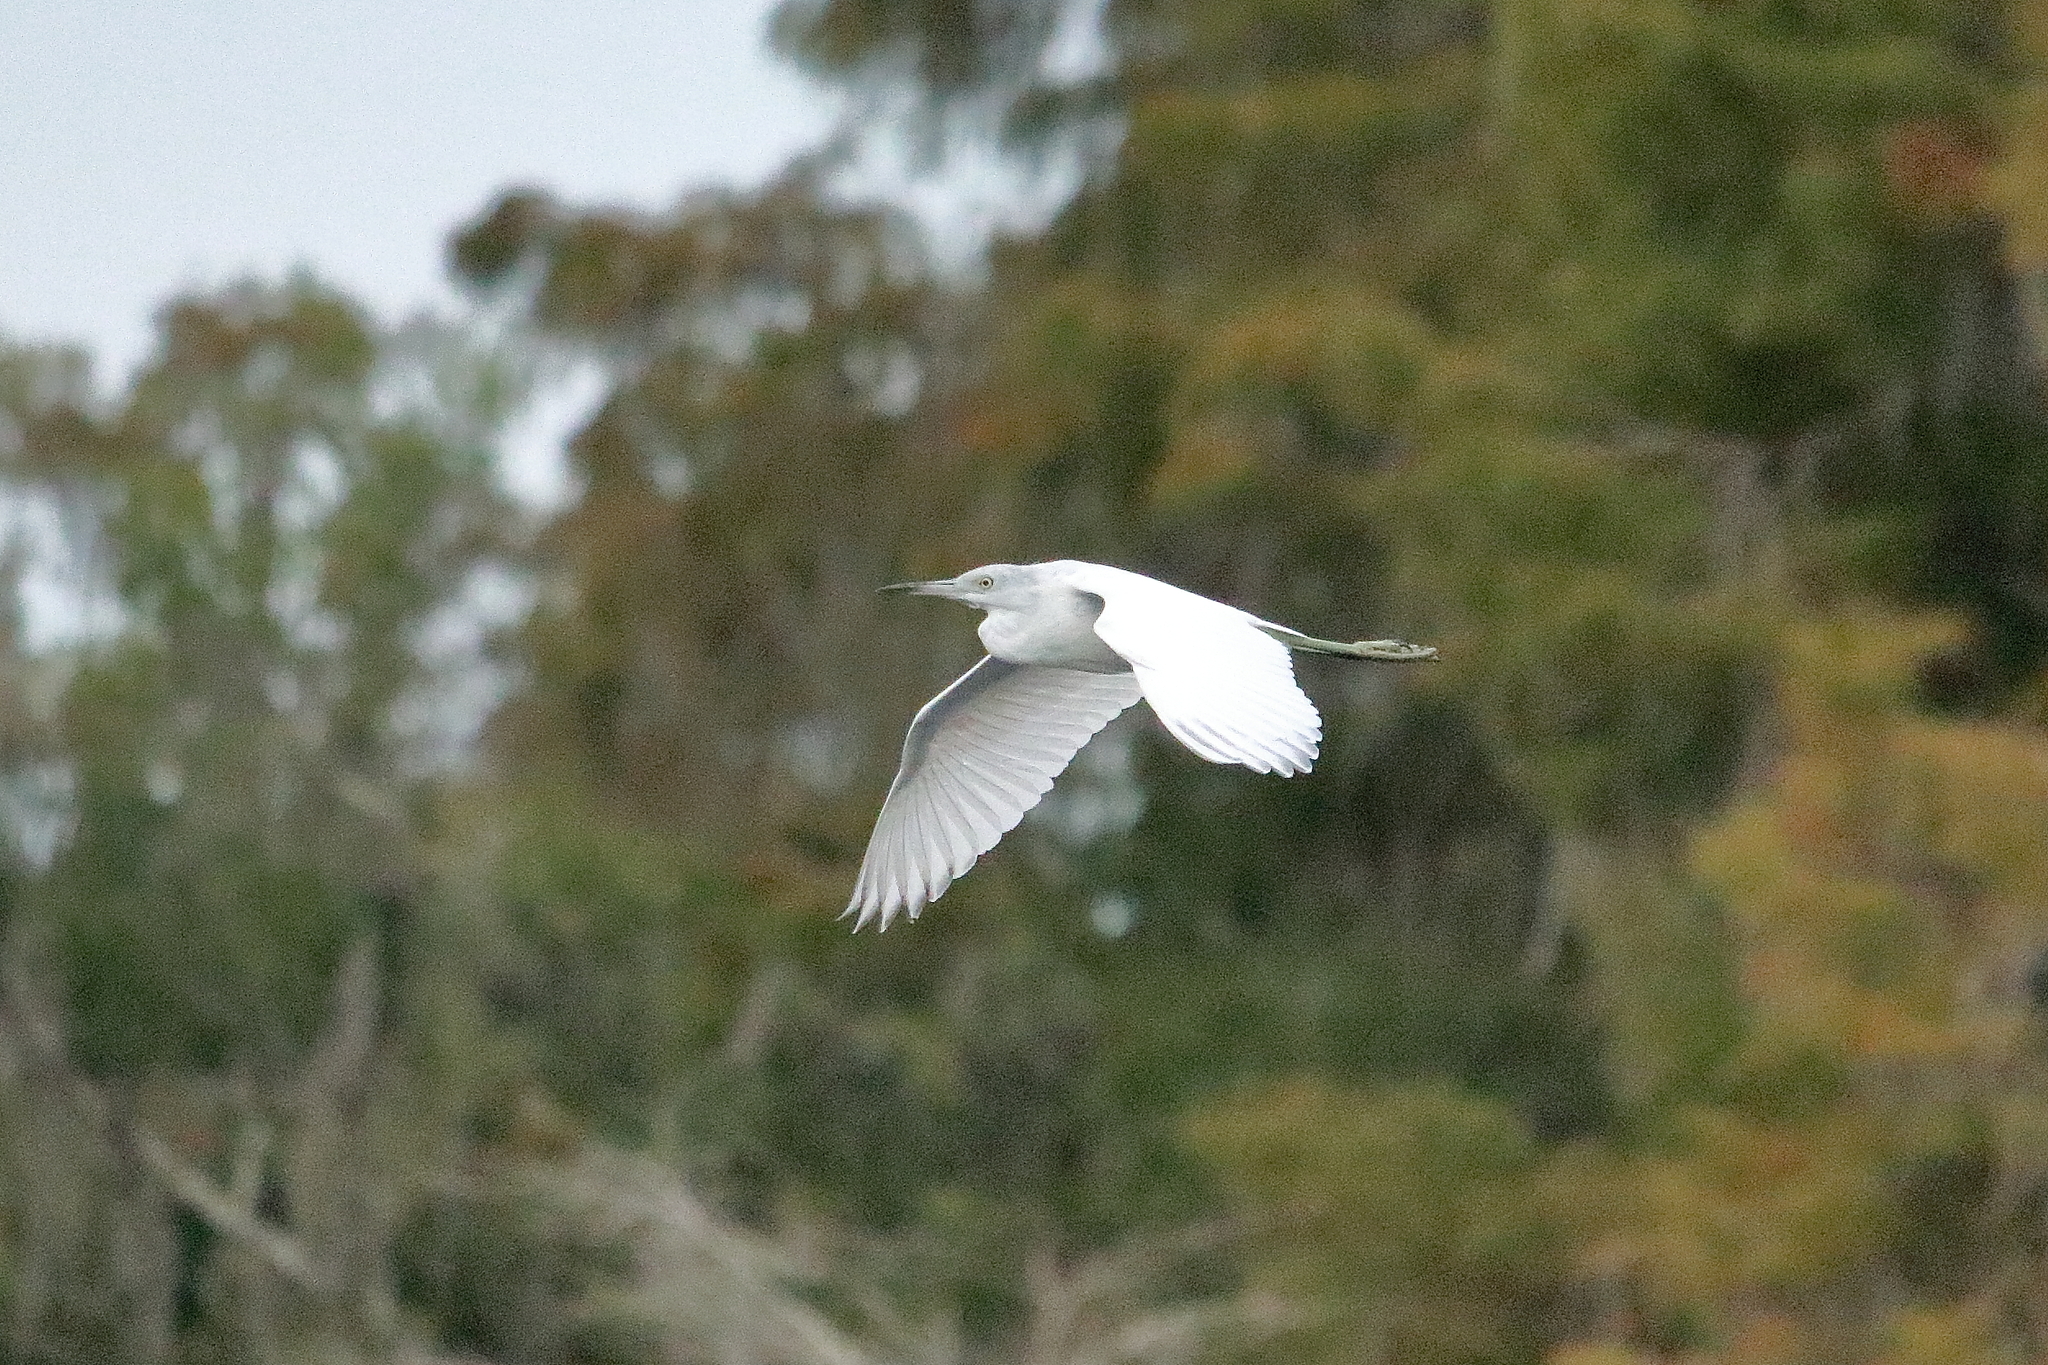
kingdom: Animalia
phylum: Chordata
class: Aves
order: Pelecaniformes
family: Ardeidae
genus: Egretta
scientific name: Egretta caerulea
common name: Little blue heron
